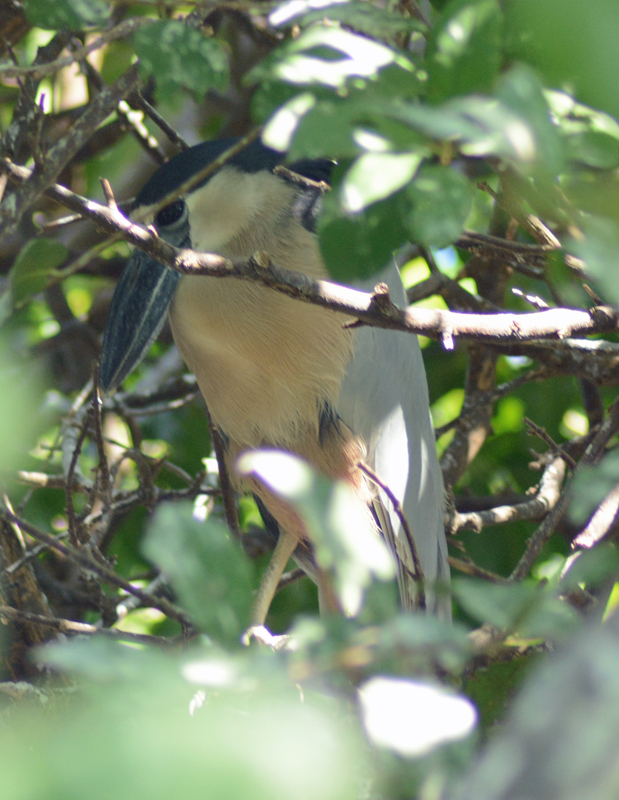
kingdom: Animalia
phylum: Chordata
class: Aves
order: Pelecaniformes
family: Ardeidae
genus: Cochlearius
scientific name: Cochlearius cochlearius
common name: Boat-billed heron
